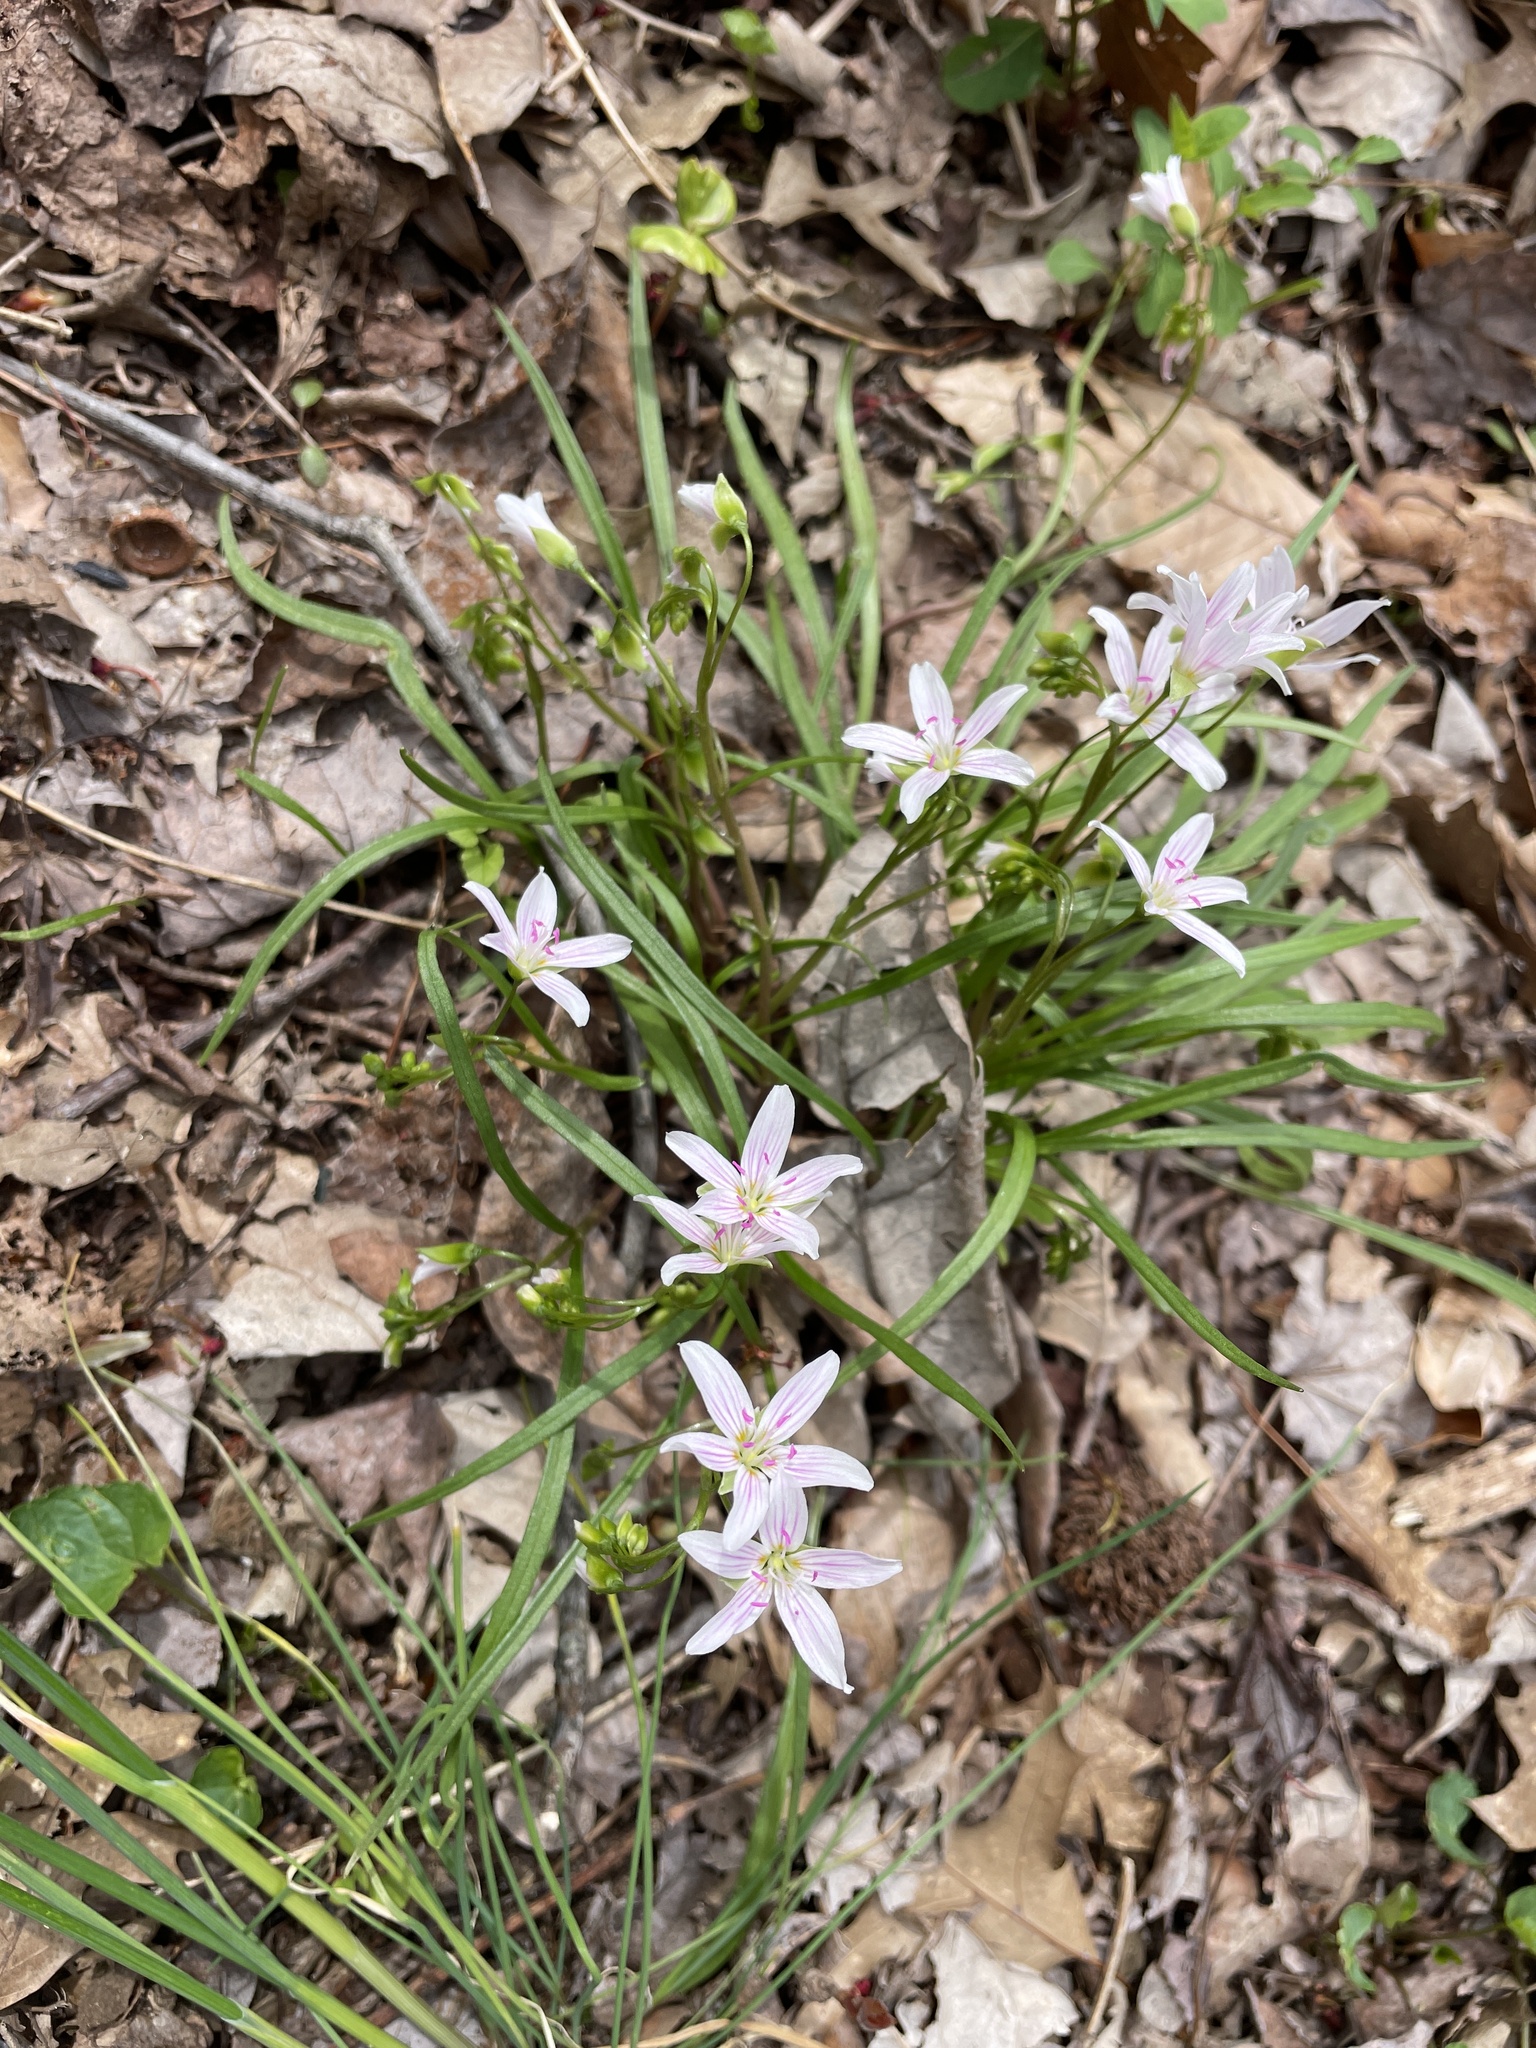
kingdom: Plantae
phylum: Tracheophyta
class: Magnoliopsida
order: Caryophyllales
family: Montiaceae
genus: Claytonia
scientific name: Claytonia virginica
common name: Virginia springbeauty
